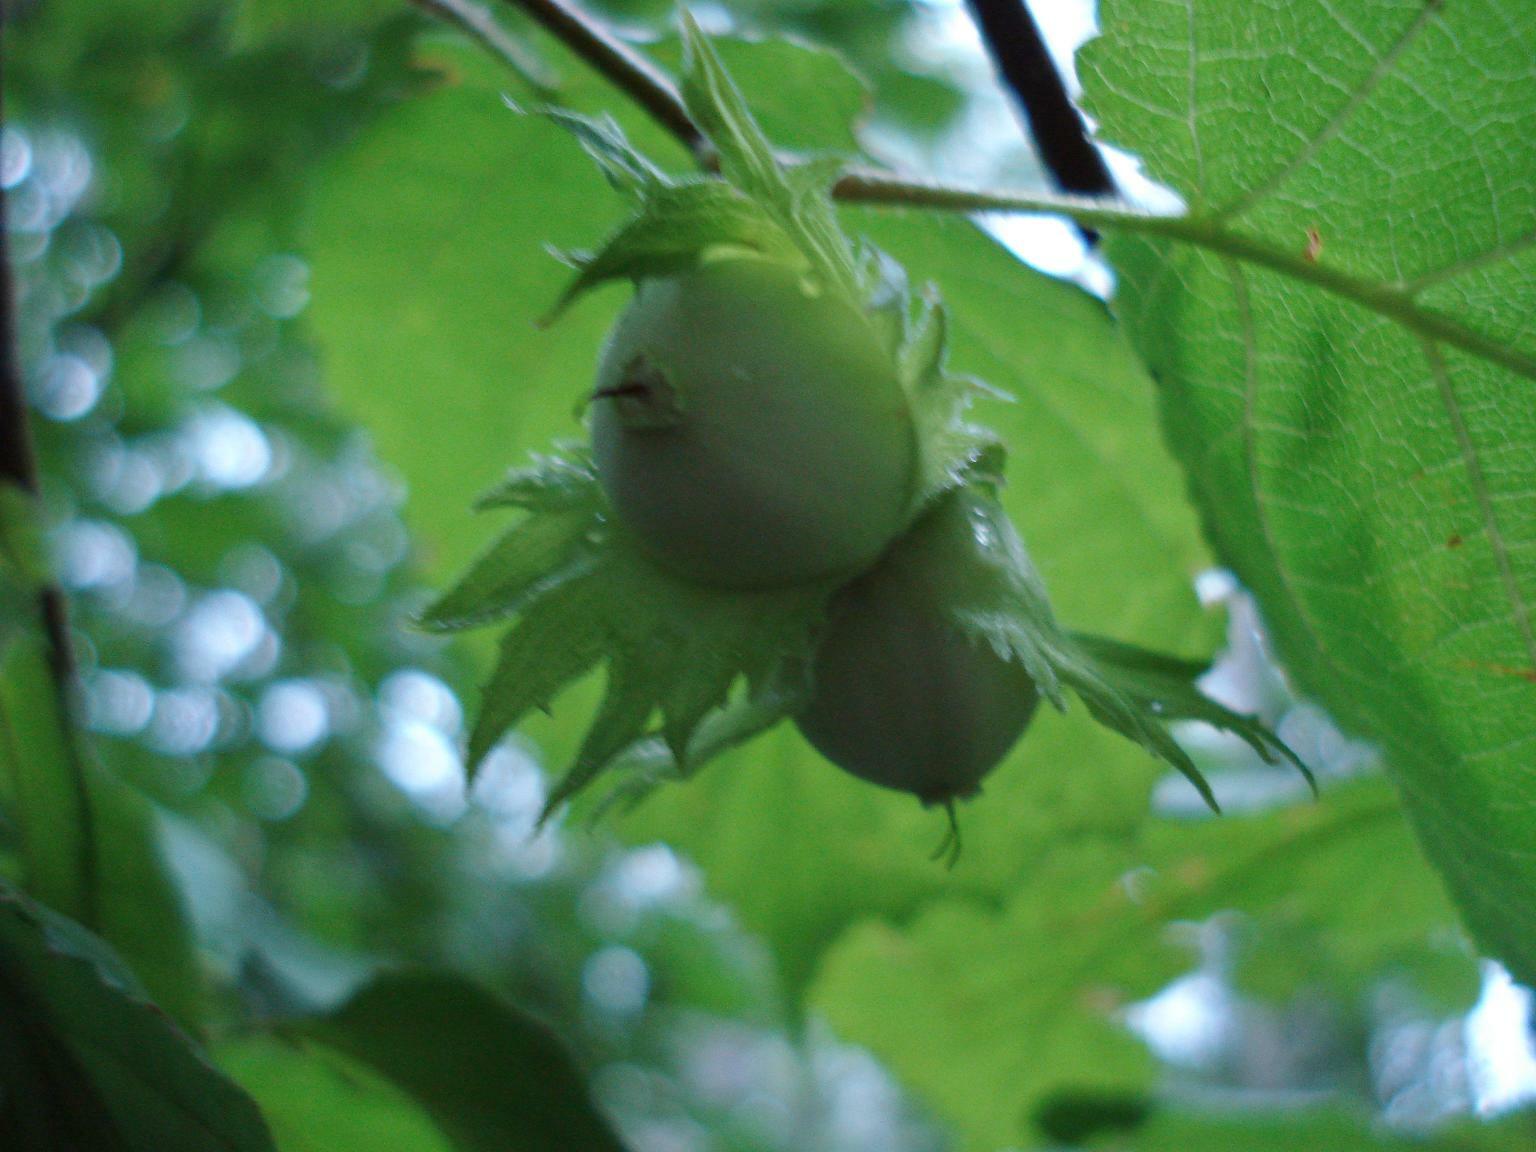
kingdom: Plantae
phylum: Tracheophyta
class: Magnoliopsida
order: Fagales
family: Betulaceae
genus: Corylus
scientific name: Corylus avellana
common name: European hazel
